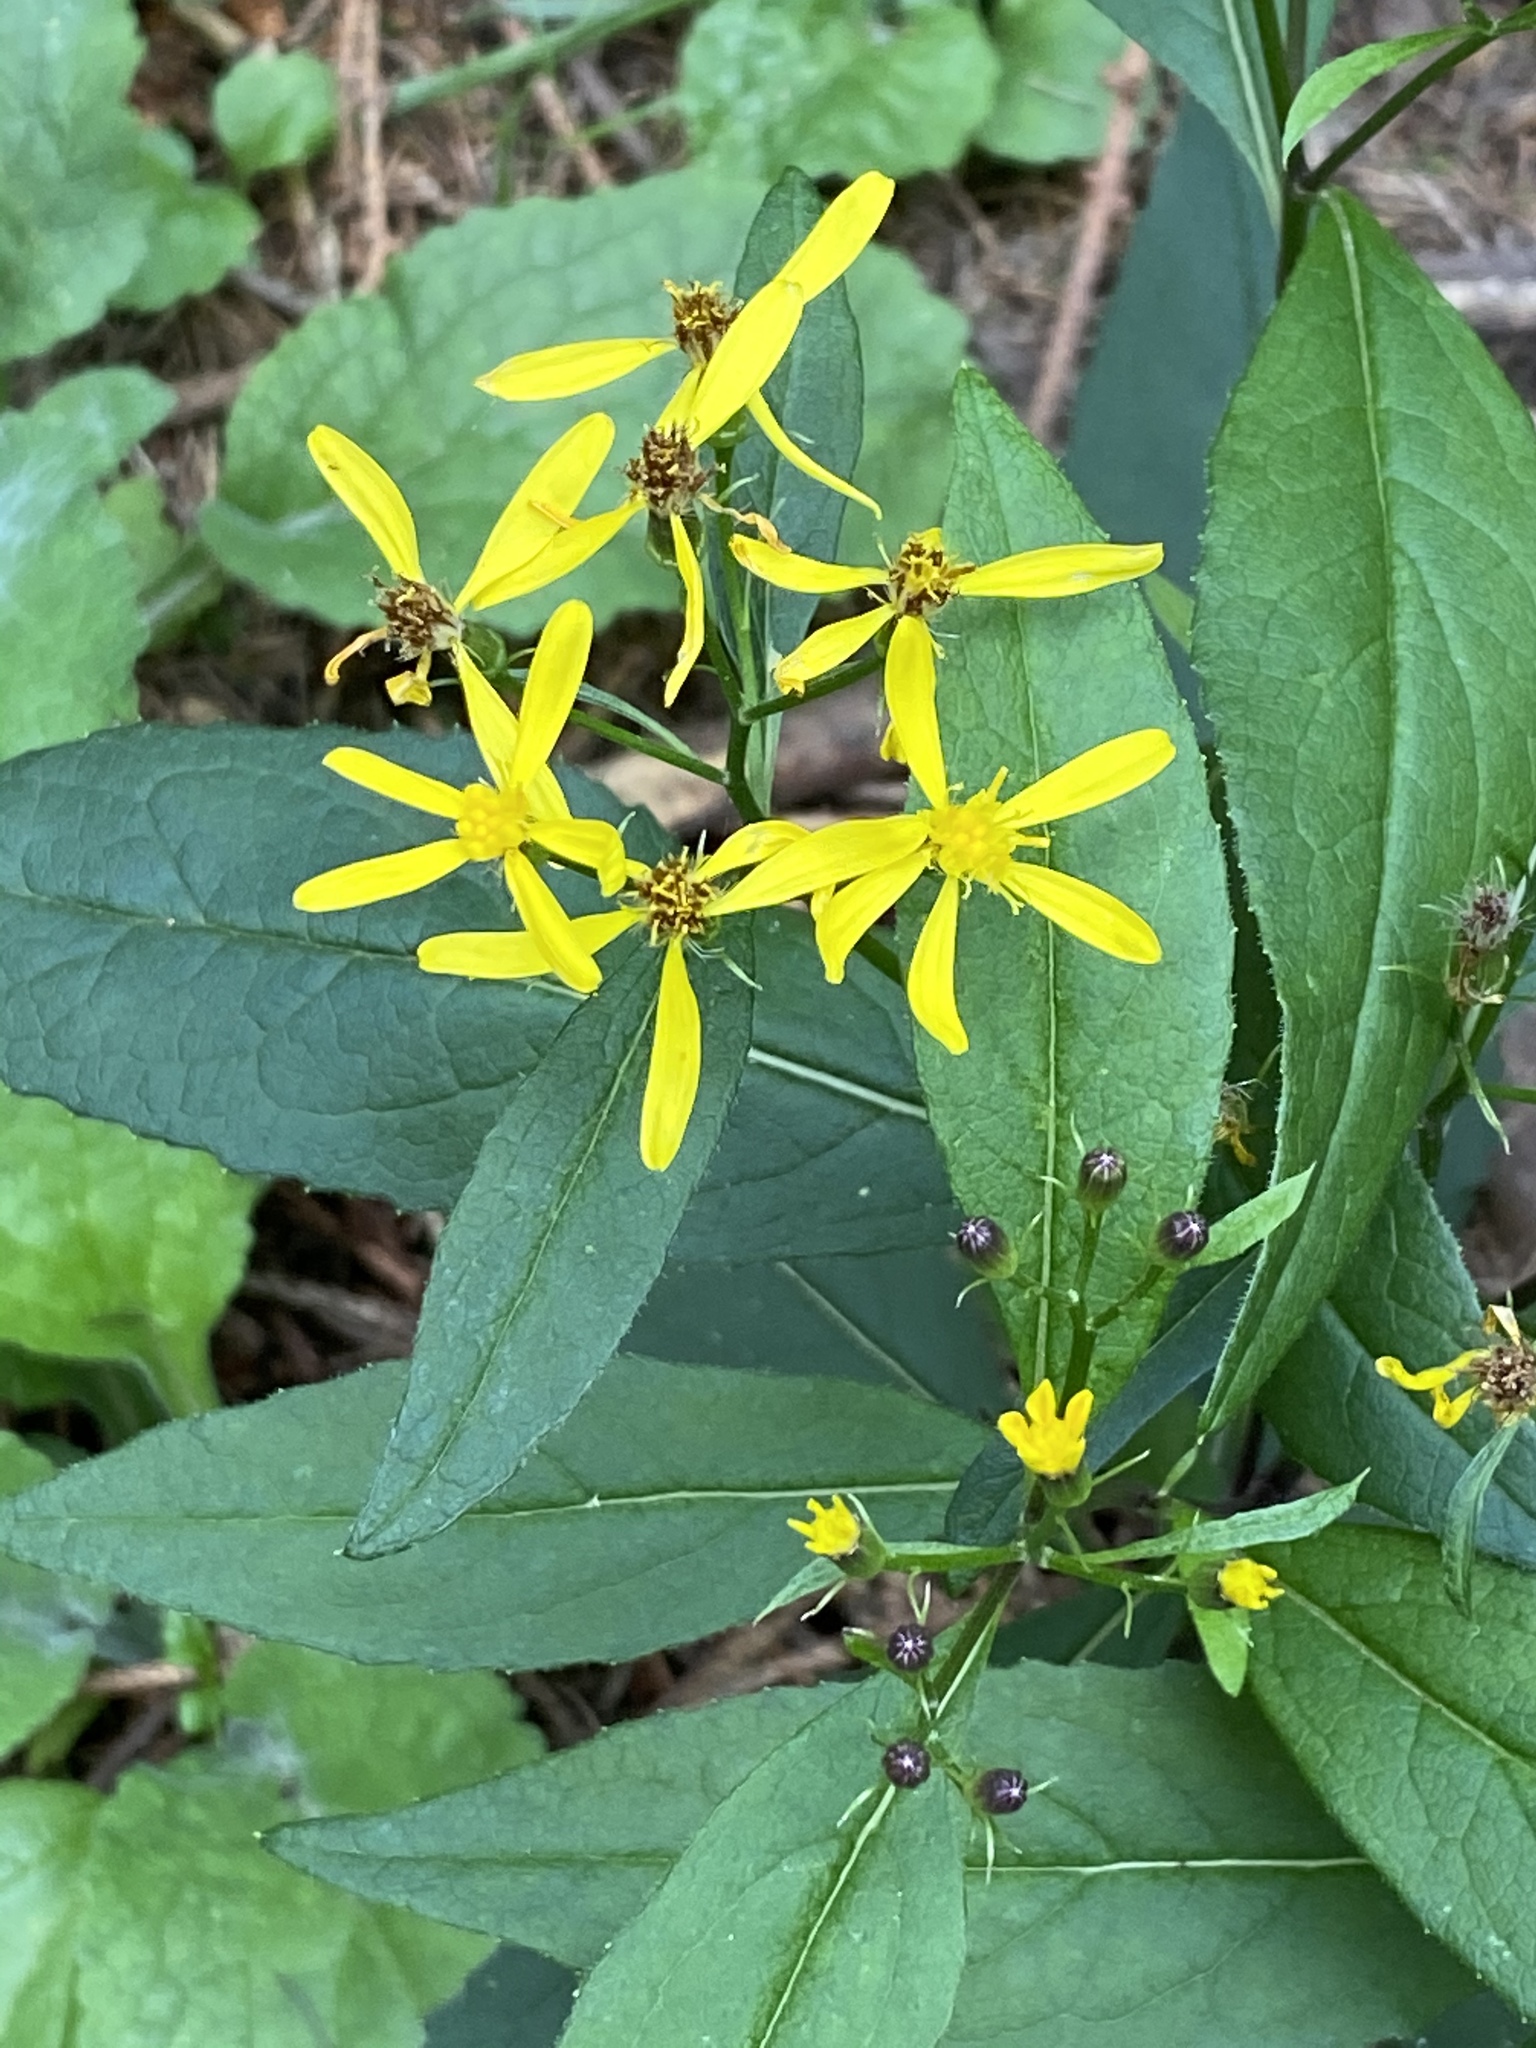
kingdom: Plantae
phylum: Tracheophyta
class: Magnoliopsida
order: Asterales
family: Asteraceae
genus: Senecio
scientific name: Senecio ovatus
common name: Wood ragwort
